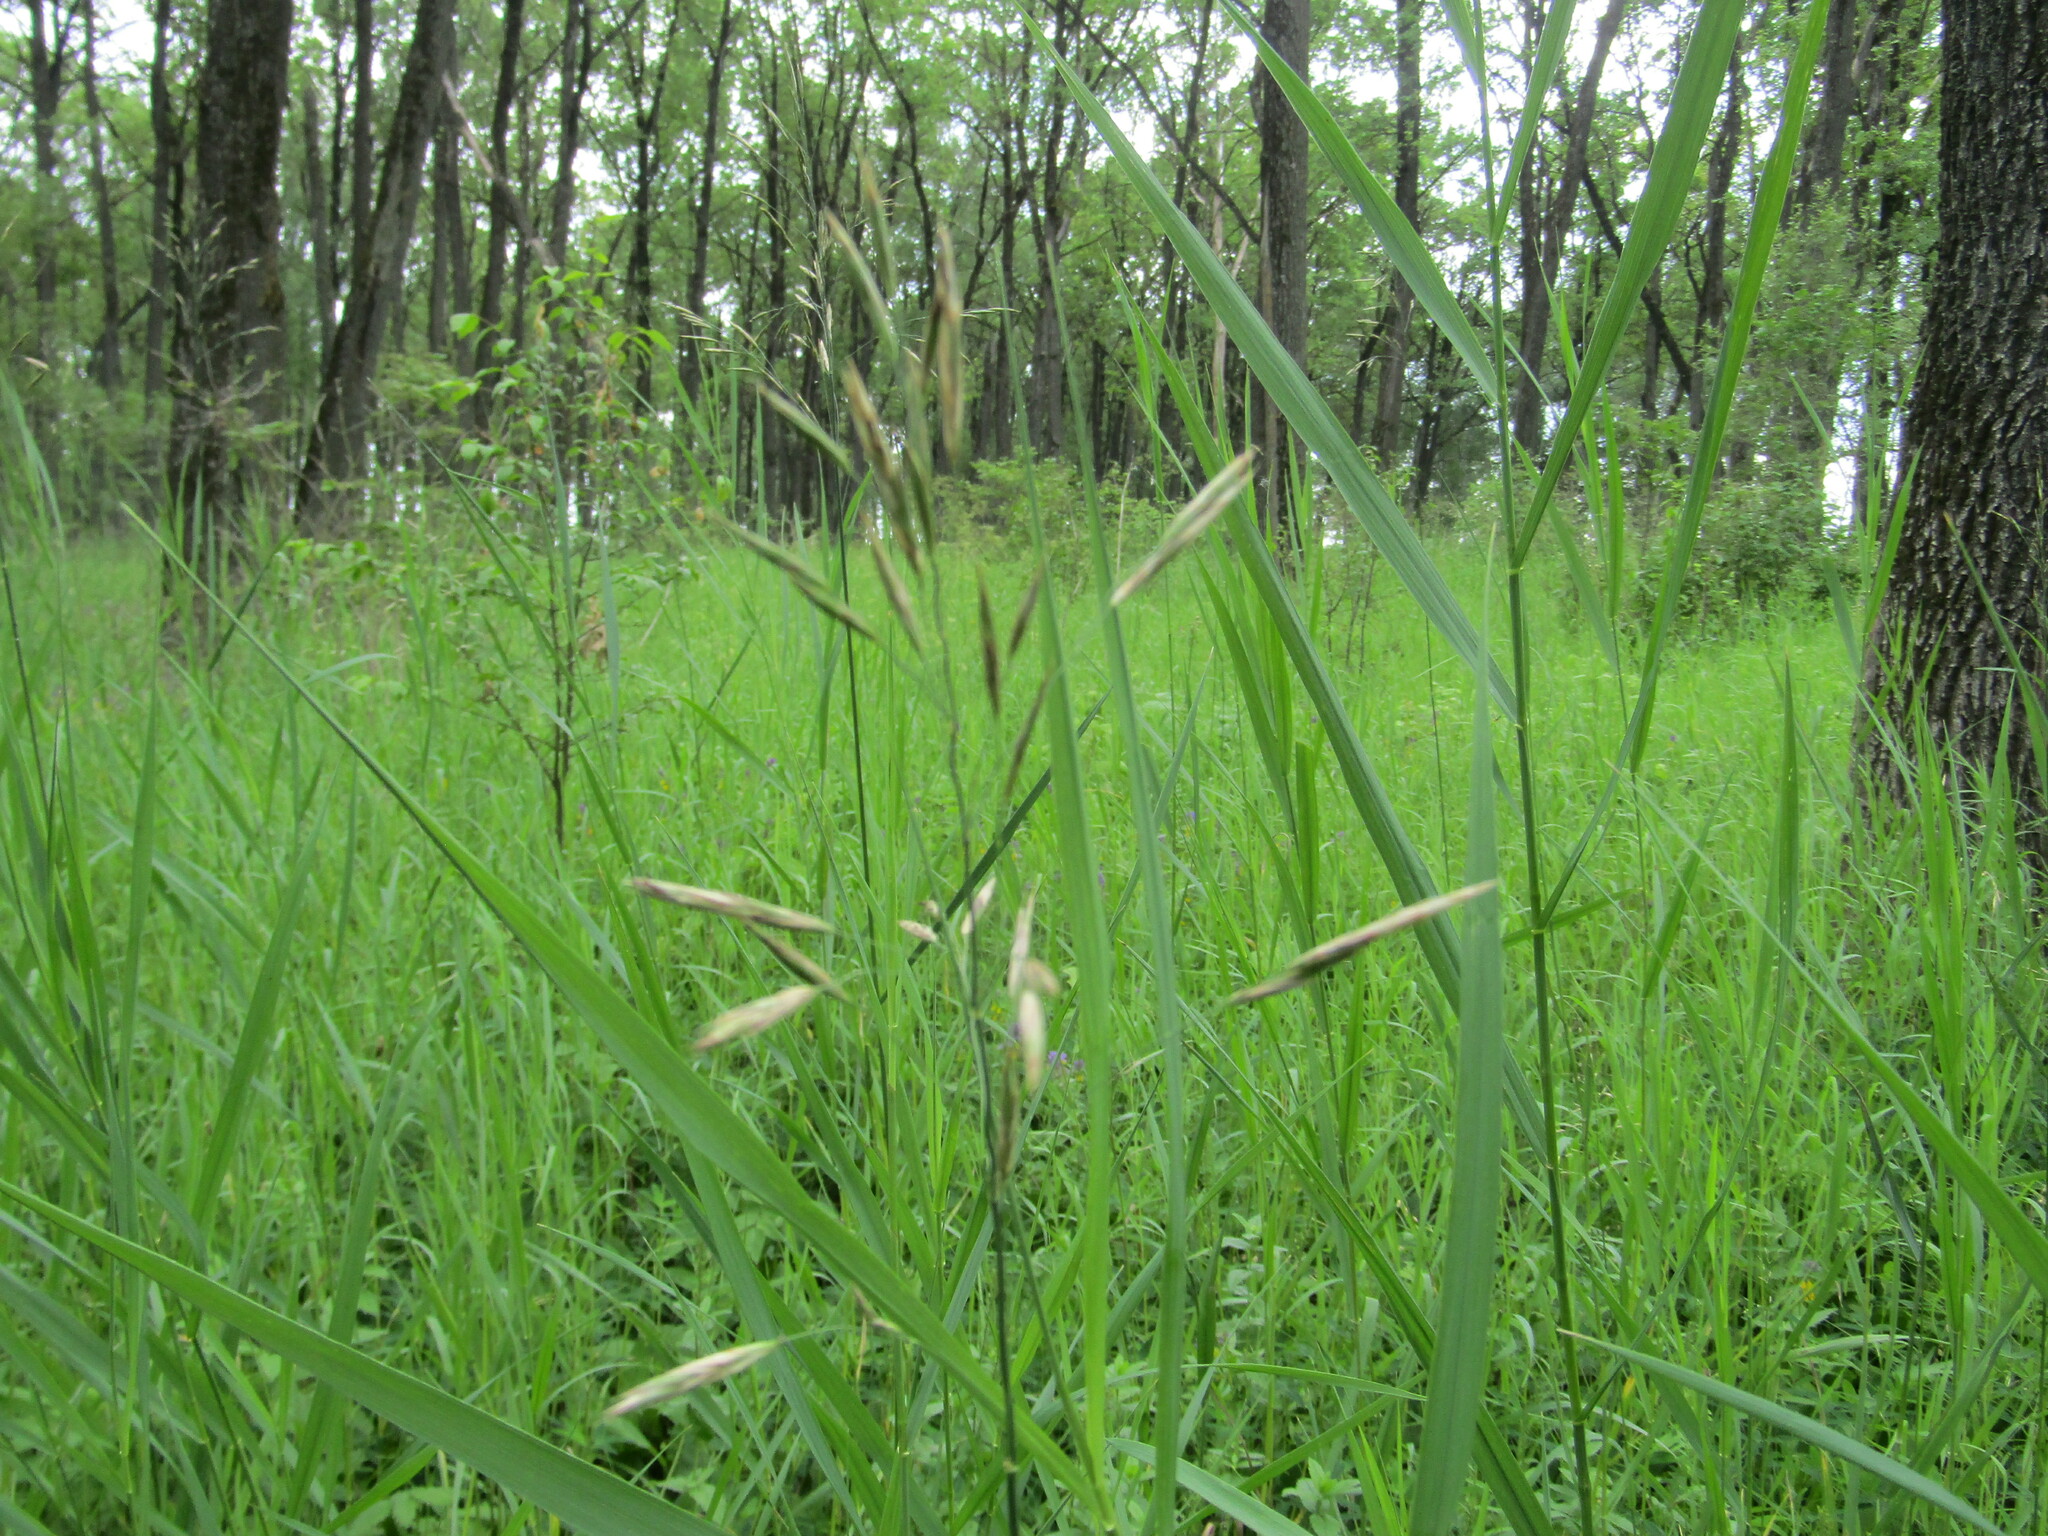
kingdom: Plantae
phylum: Tracheophyta
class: Liliopsida
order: Poales
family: Poaceae
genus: Bromus
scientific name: Bromus inermis
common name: Smooth brome
